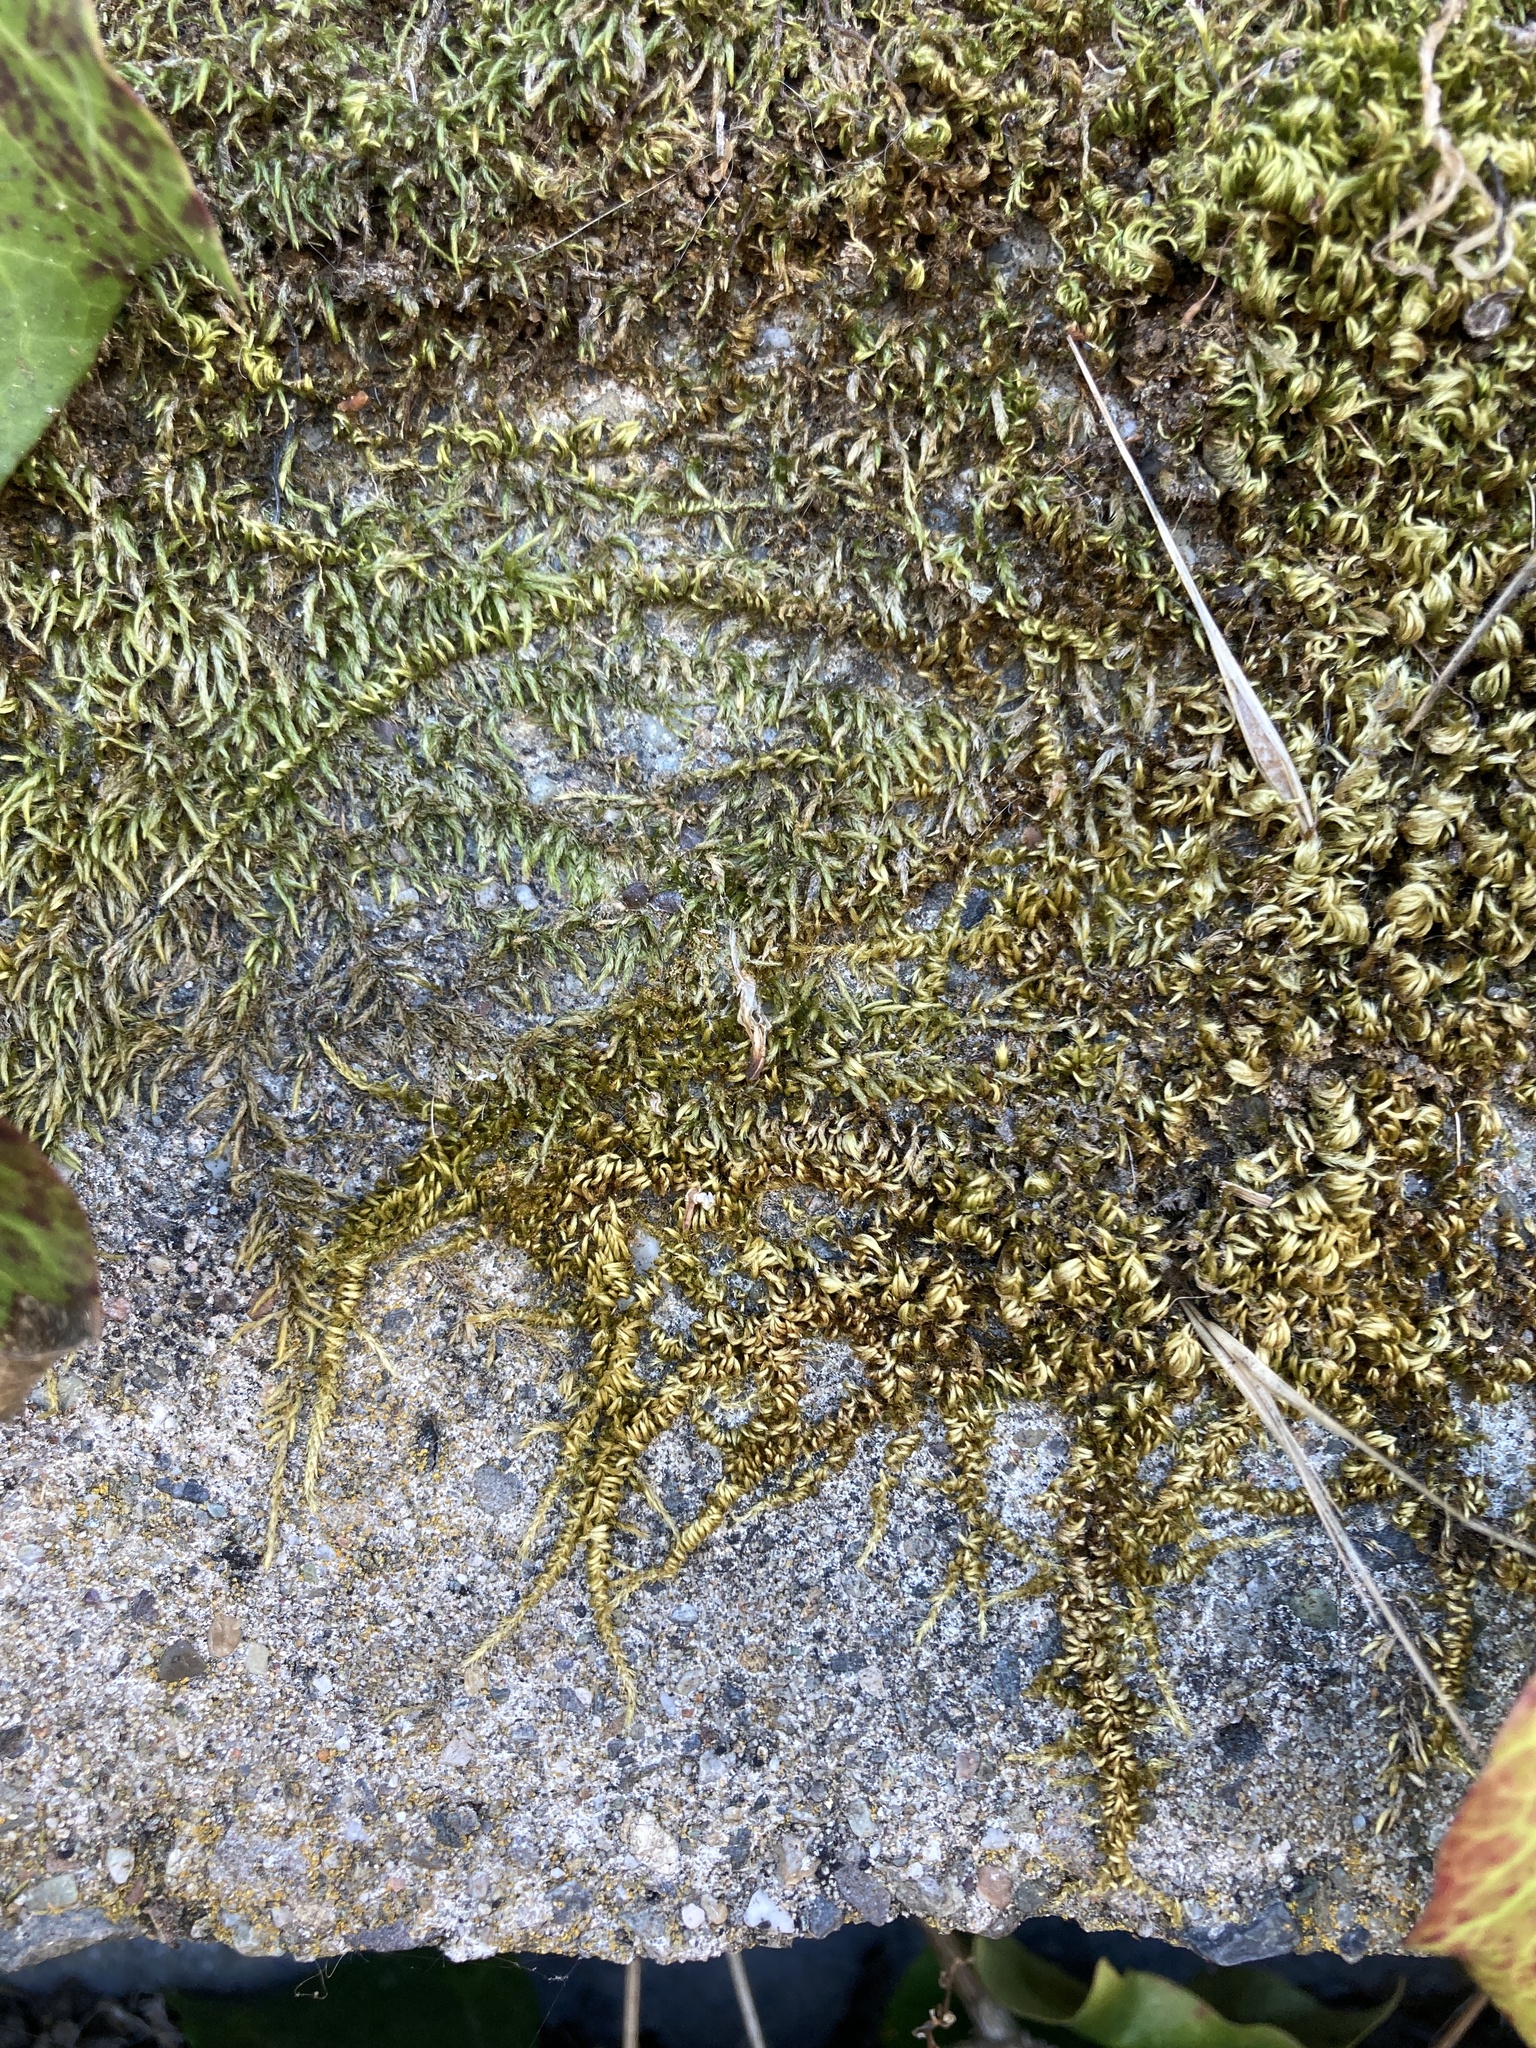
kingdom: Plantae
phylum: Bryophyta
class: Bryopsida
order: Hypnales
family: Brachytheciaceae
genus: Homalothecium
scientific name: Homalothecium nuttallii
